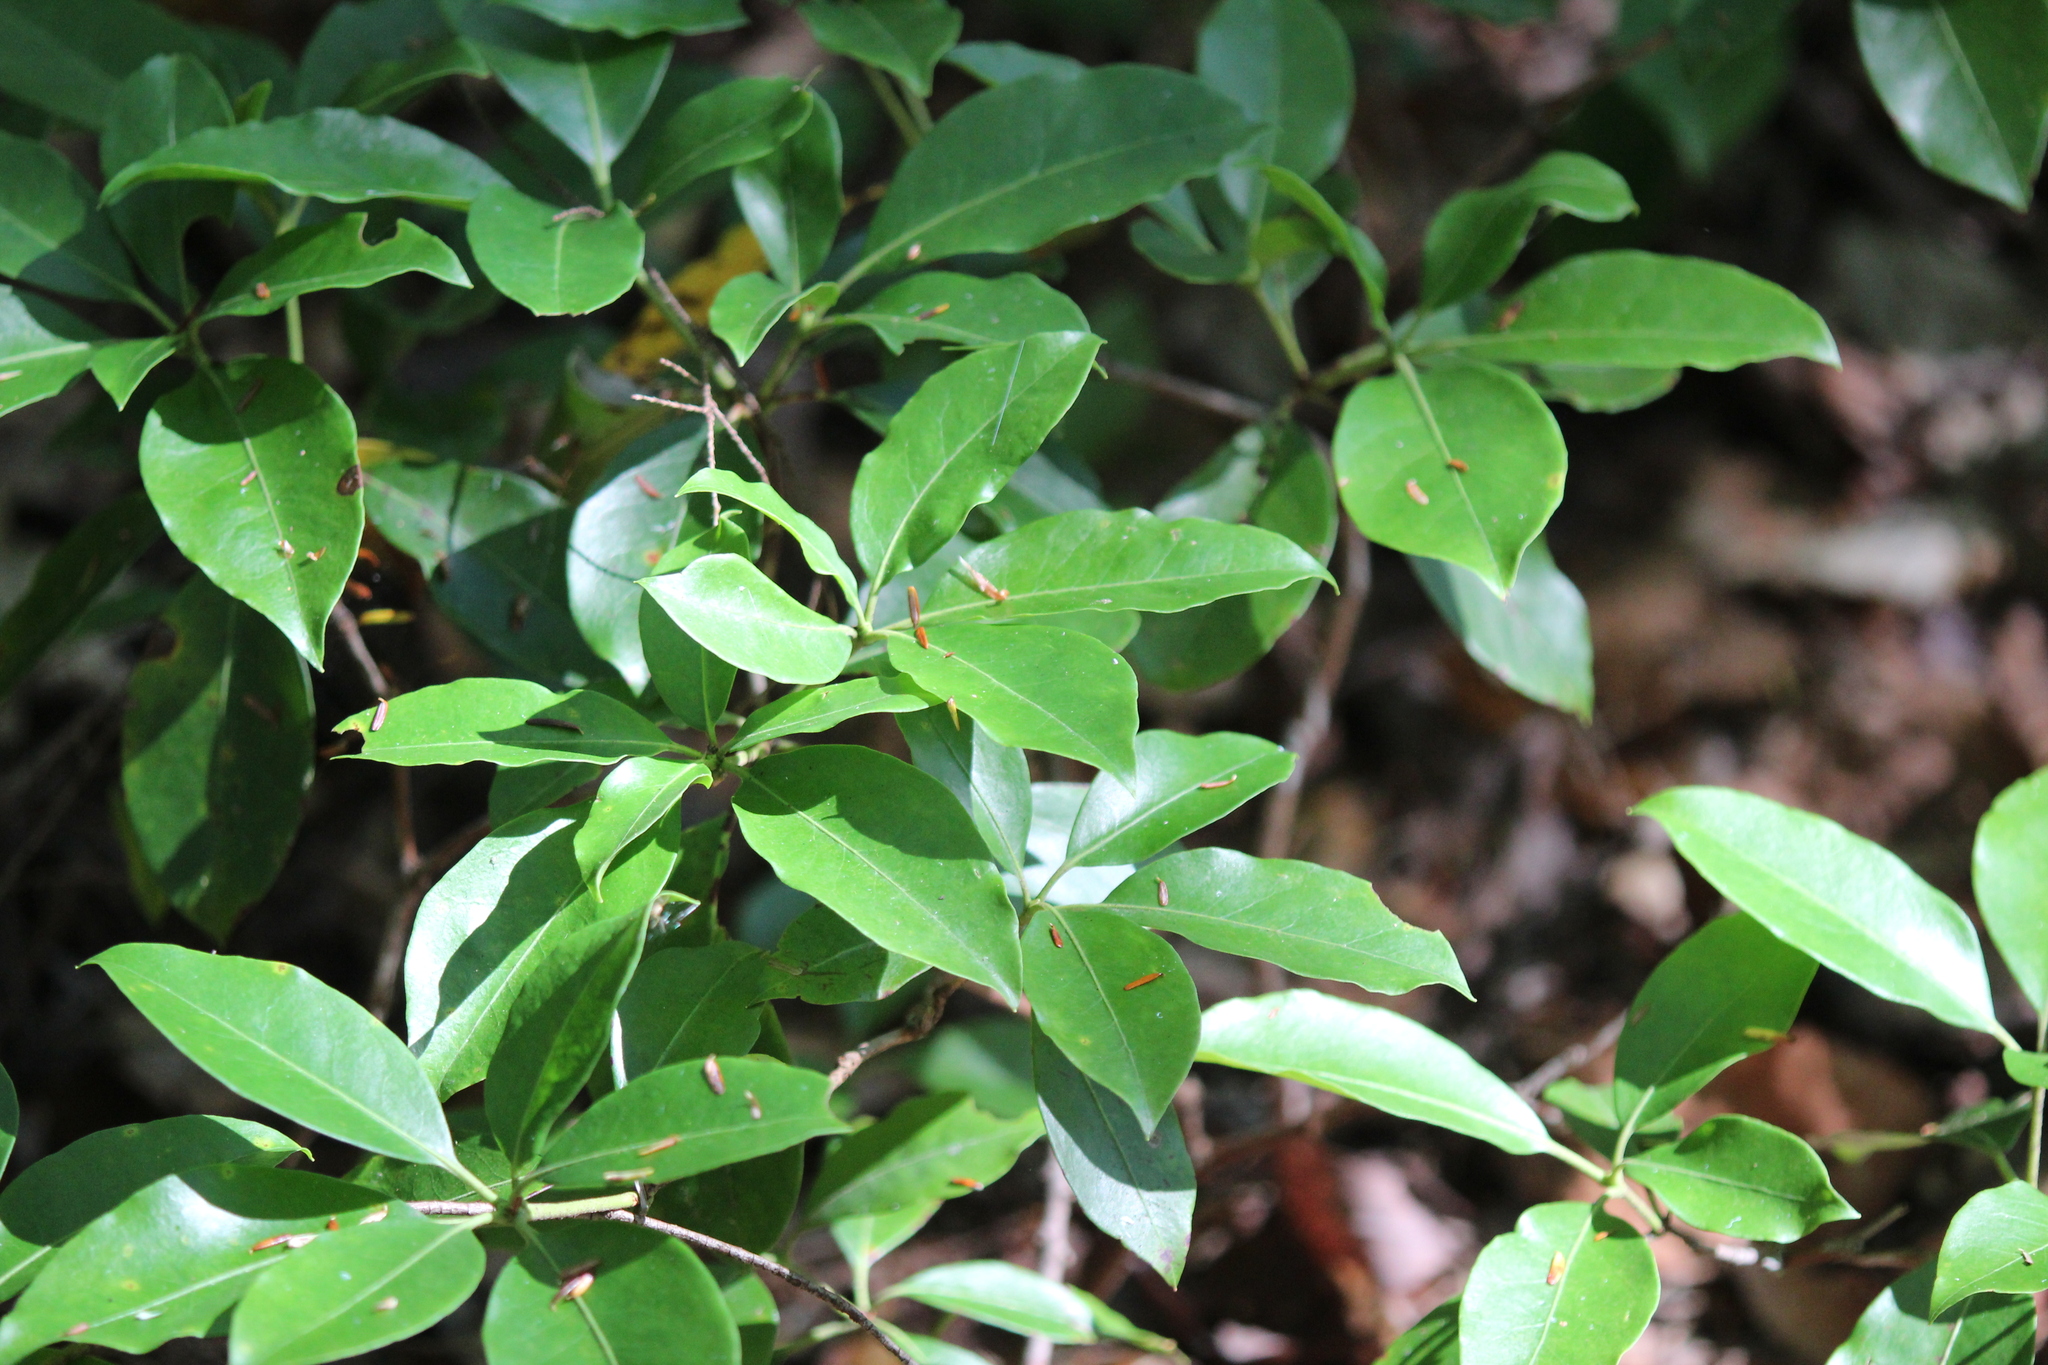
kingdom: Plantae
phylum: Tracheophyta
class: Magnoliopsida
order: Ericales
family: Ericaceae
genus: Kalmia
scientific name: Kalmia latifolia
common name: Mountain-laurel
